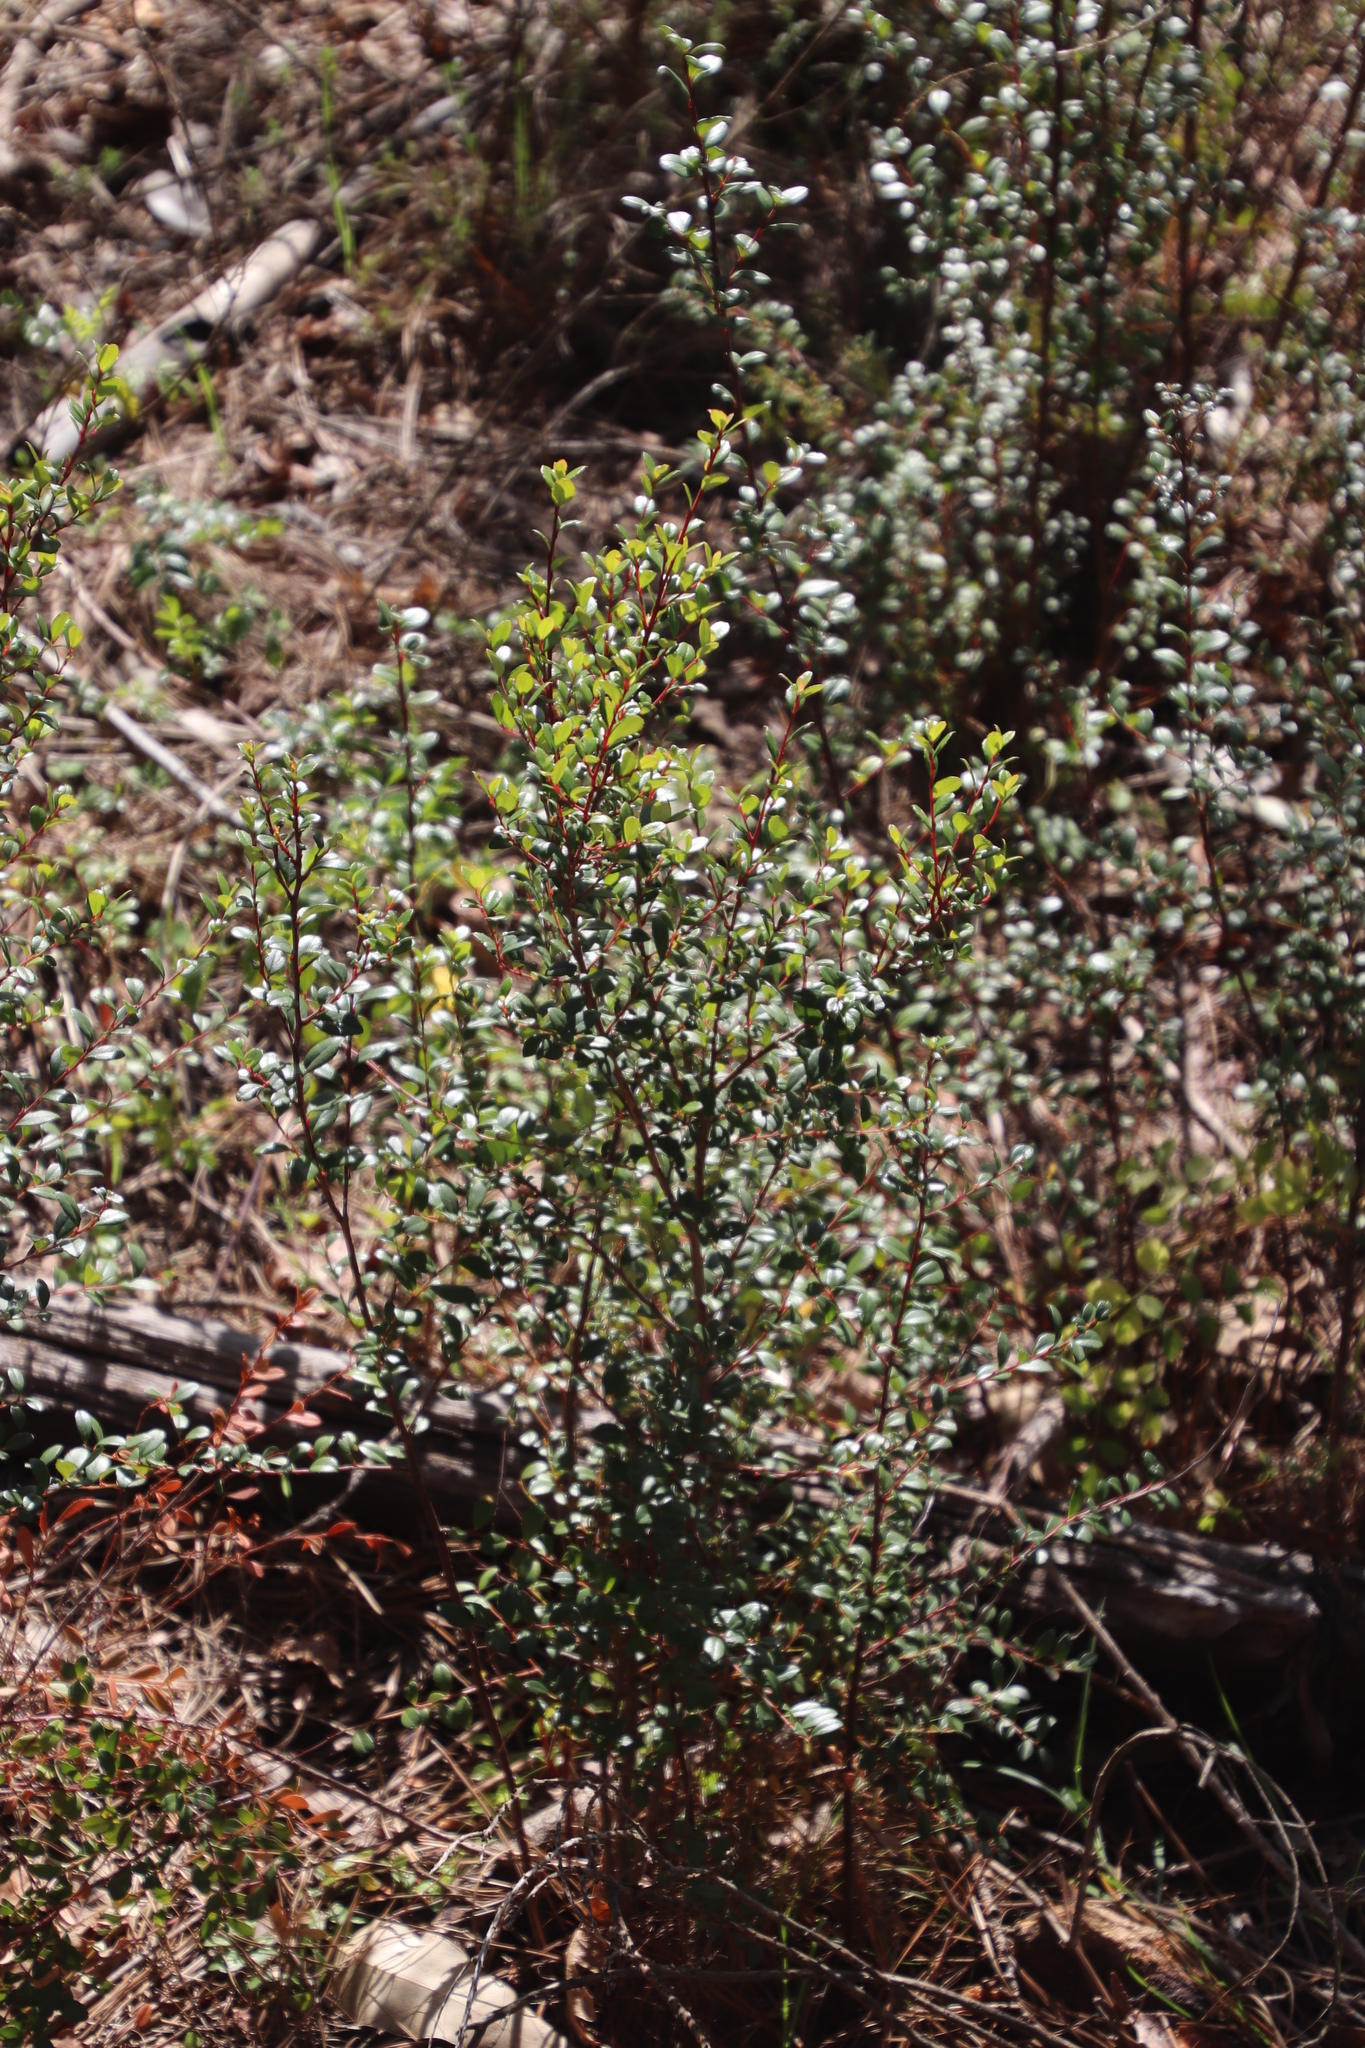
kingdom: Plantae
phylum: Tracheophyta
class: Magnoliopsida
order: Ericales
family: Primulaceae
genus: Myrsine
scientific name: Myrsine africana
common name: African-boxwood
